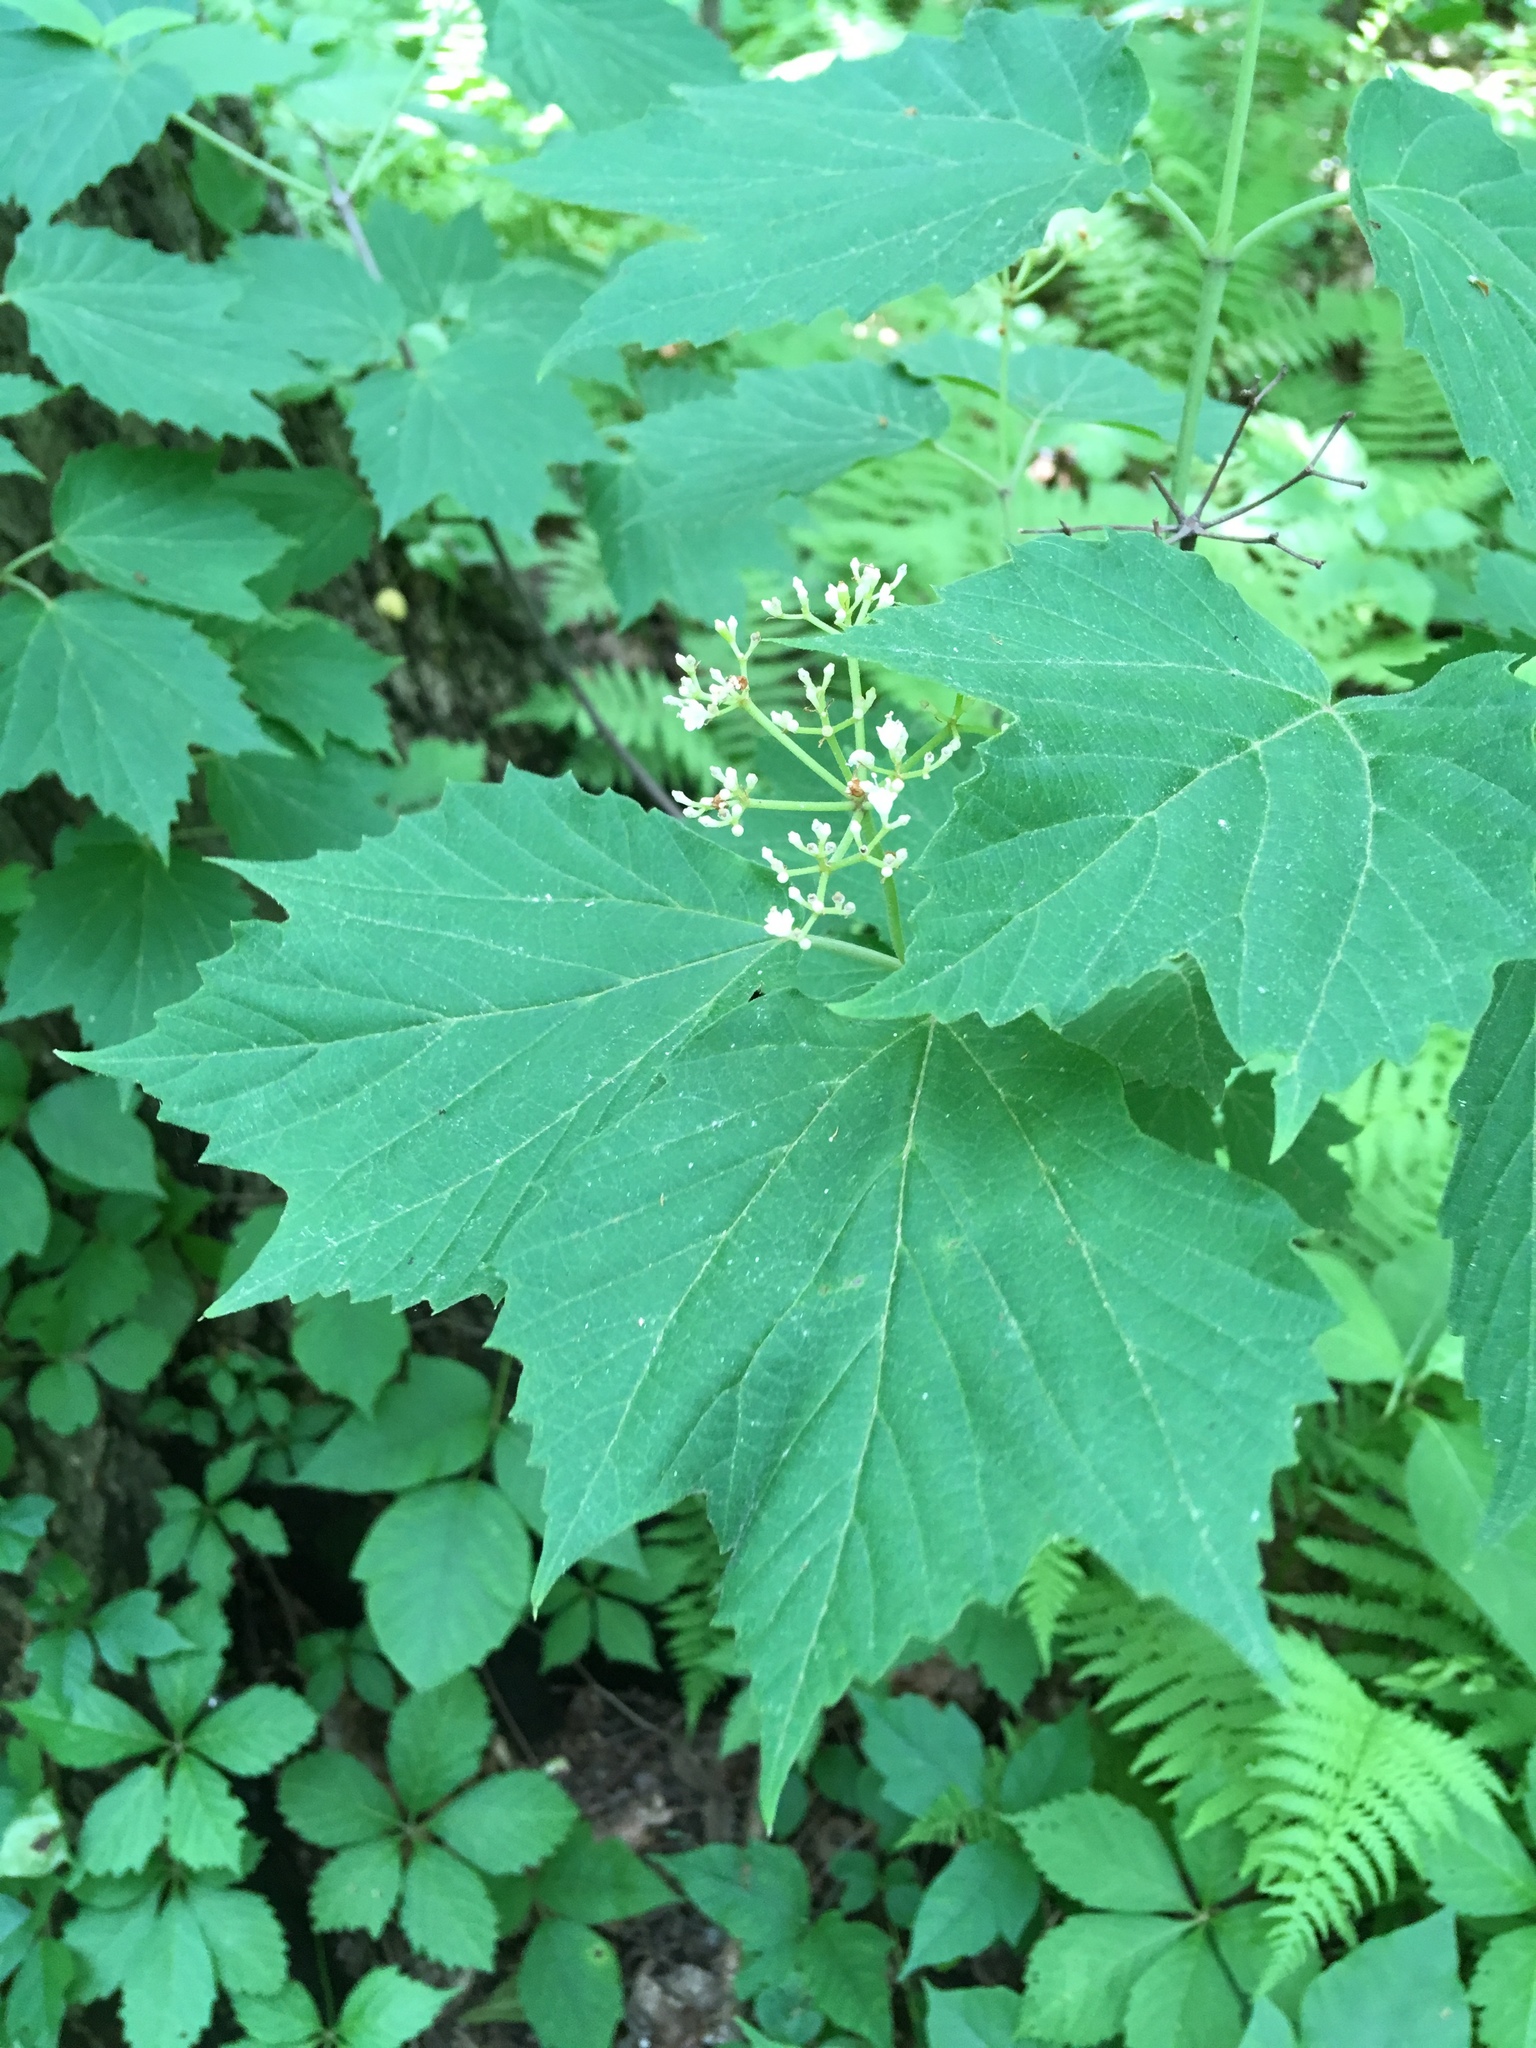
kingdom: Plantae
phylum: Tracheophyta
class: Magnoliopsida
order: Dipsacales
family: Viburnaceae
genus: Viburnum
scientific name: Viburnum acerifolium
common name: Dockmackie
